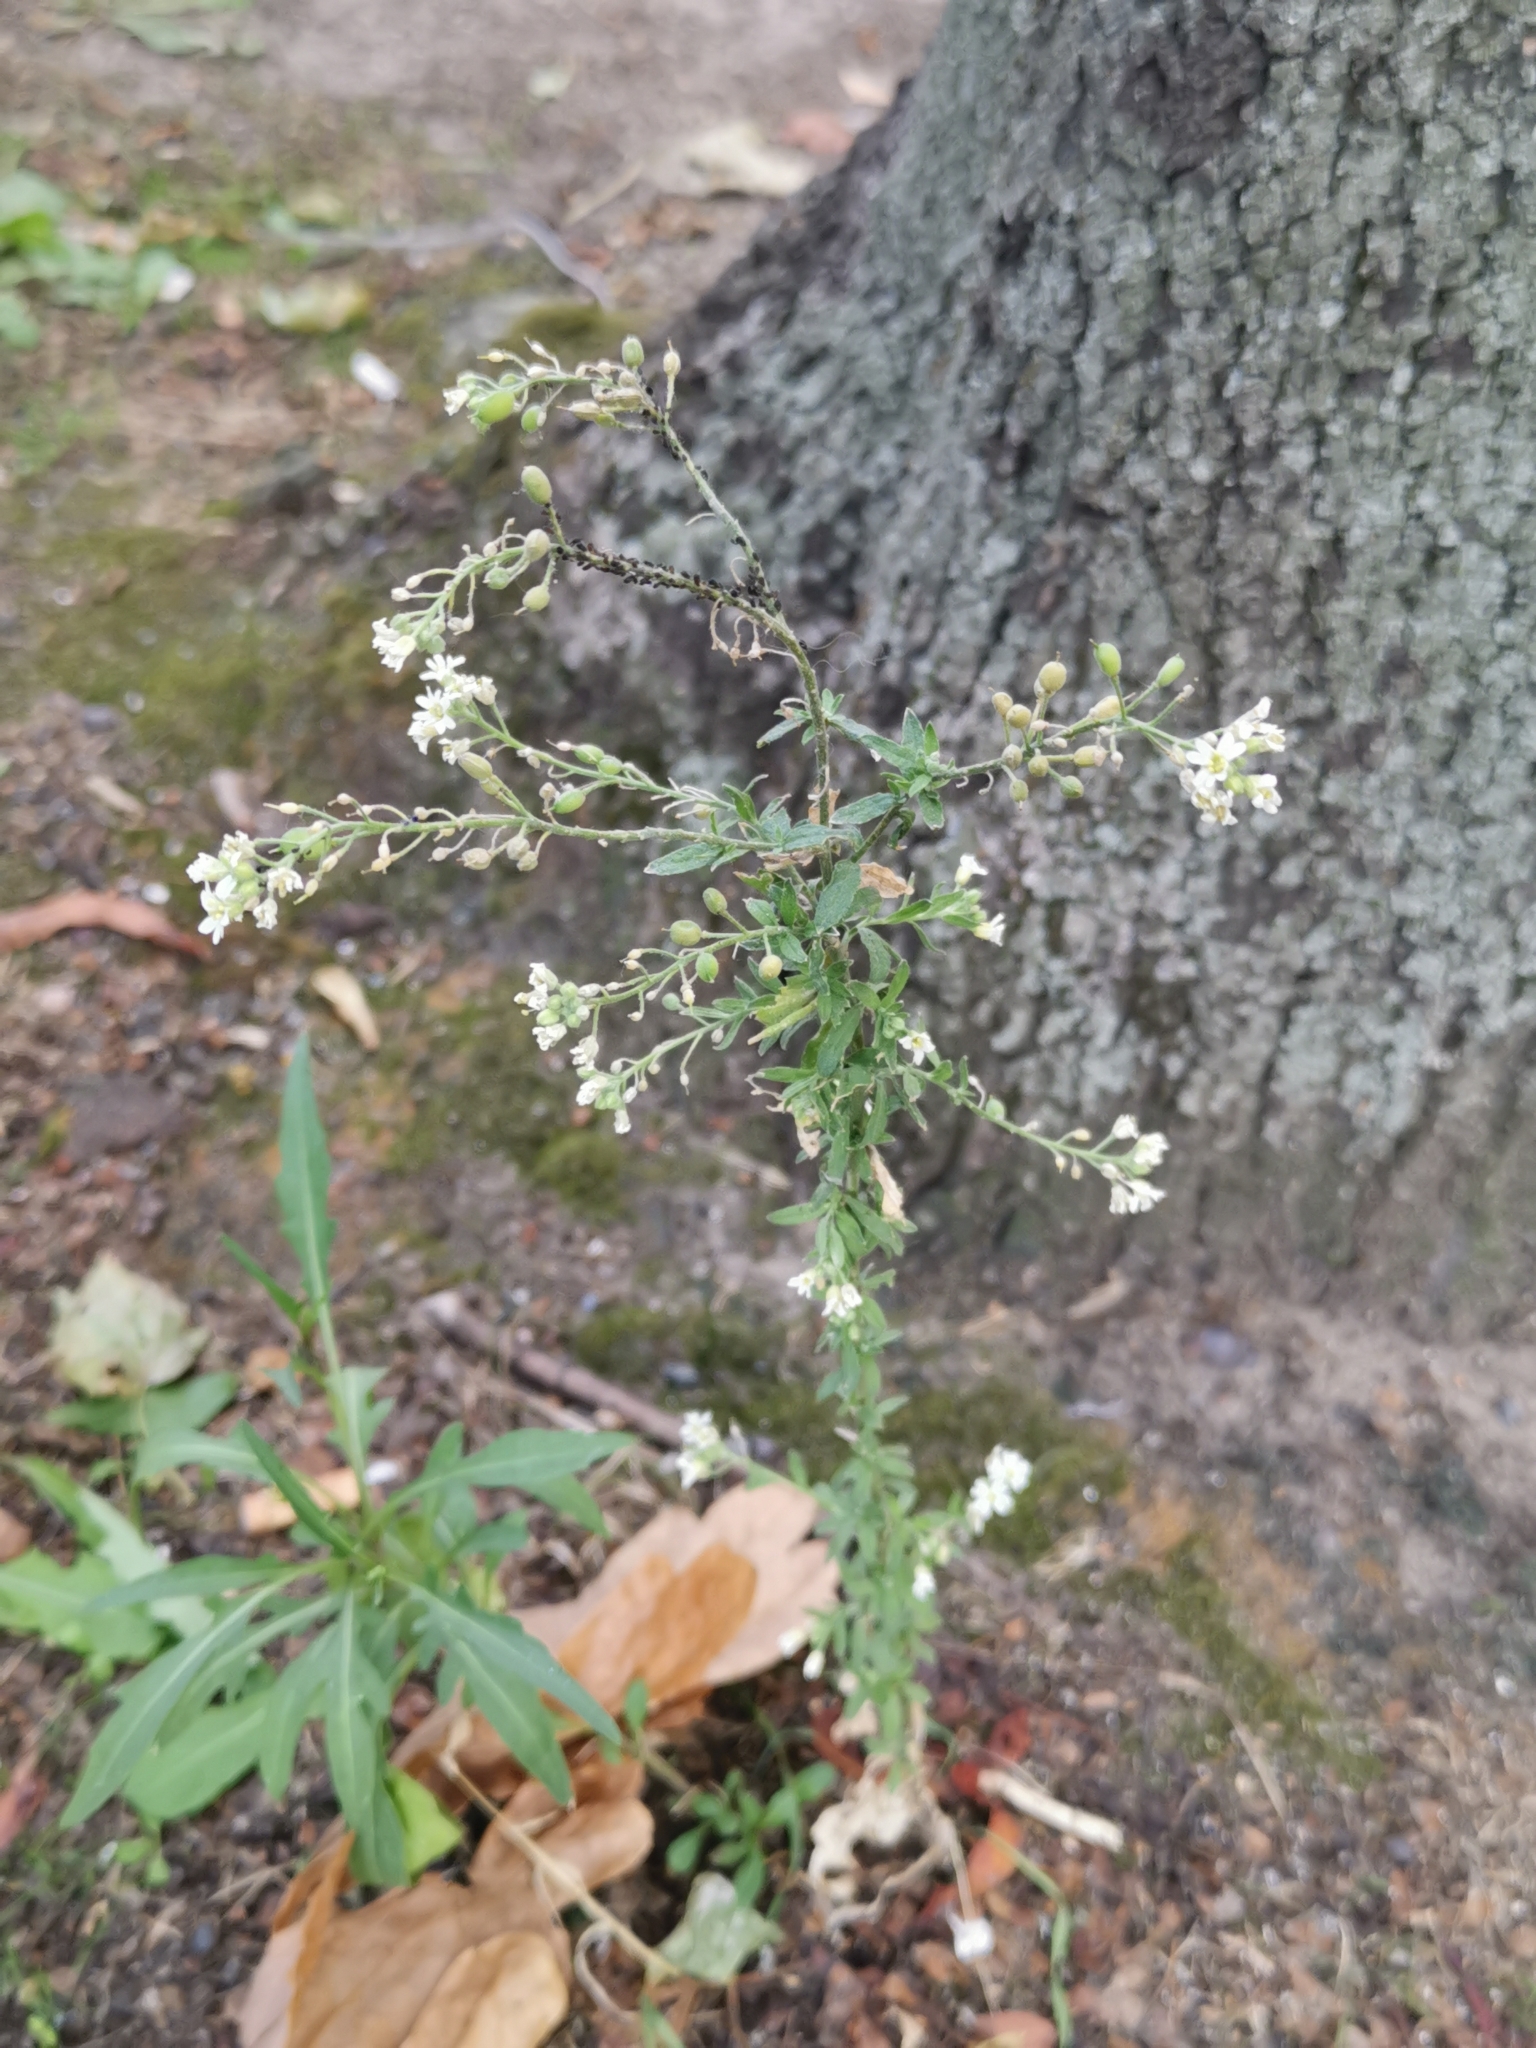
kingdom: Plantae
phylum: Tracheophyta
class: Magnoliopsida
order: Brassicales
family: Brassicaceae
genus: Berteroa
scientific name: Berteroa incana
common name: Hoary alison
